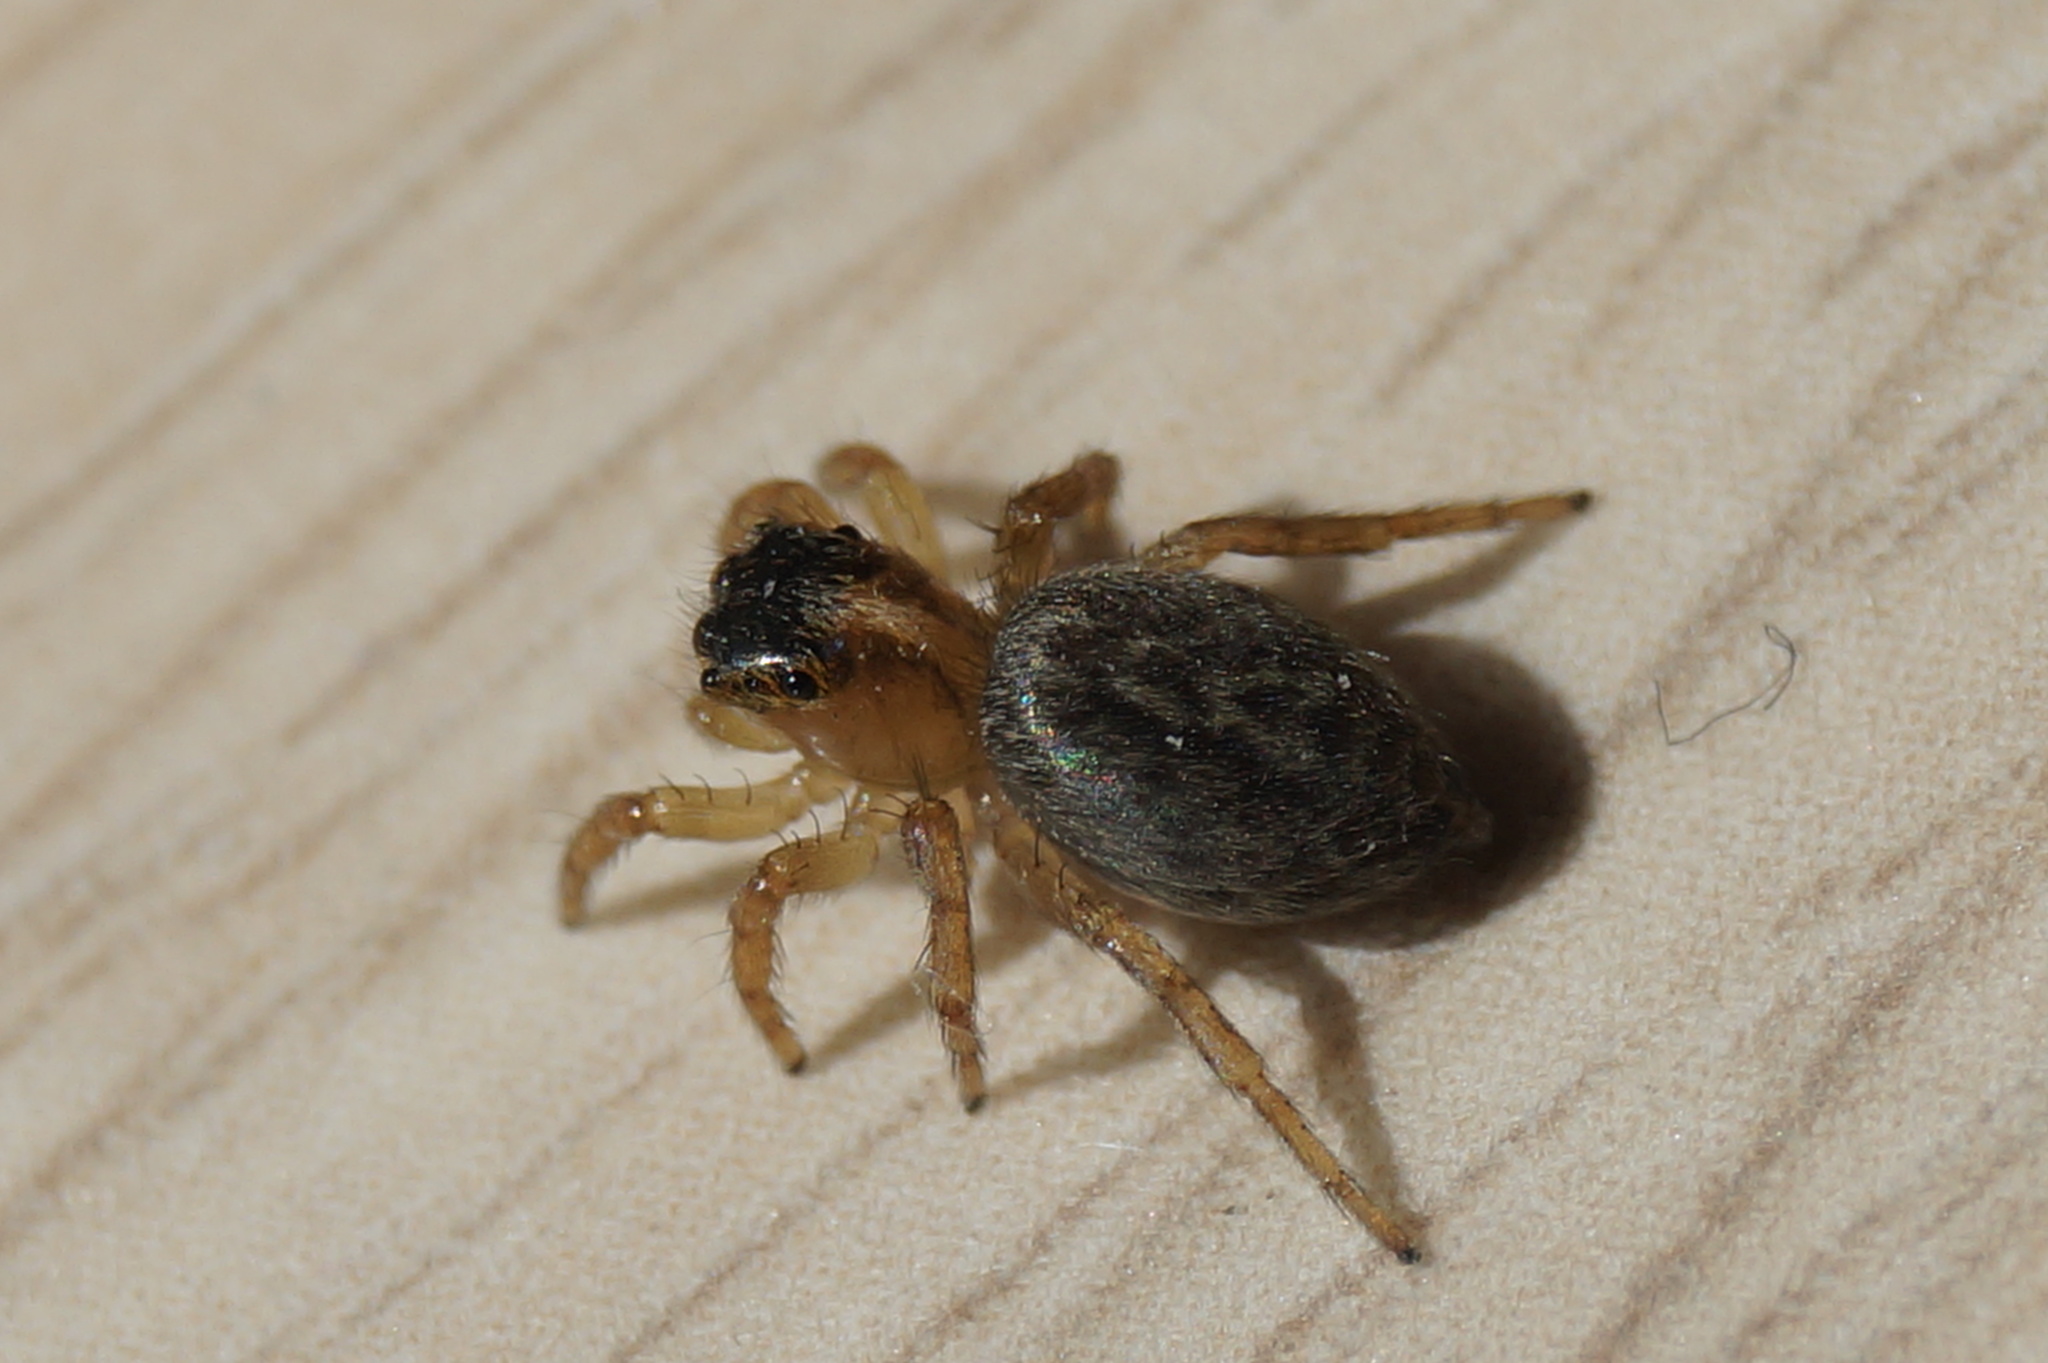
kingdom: Animalia
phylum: Arthropoda
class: Arachnida
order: Araneae
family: Salticidae
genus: Saitis
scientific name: Saitis barbipes
